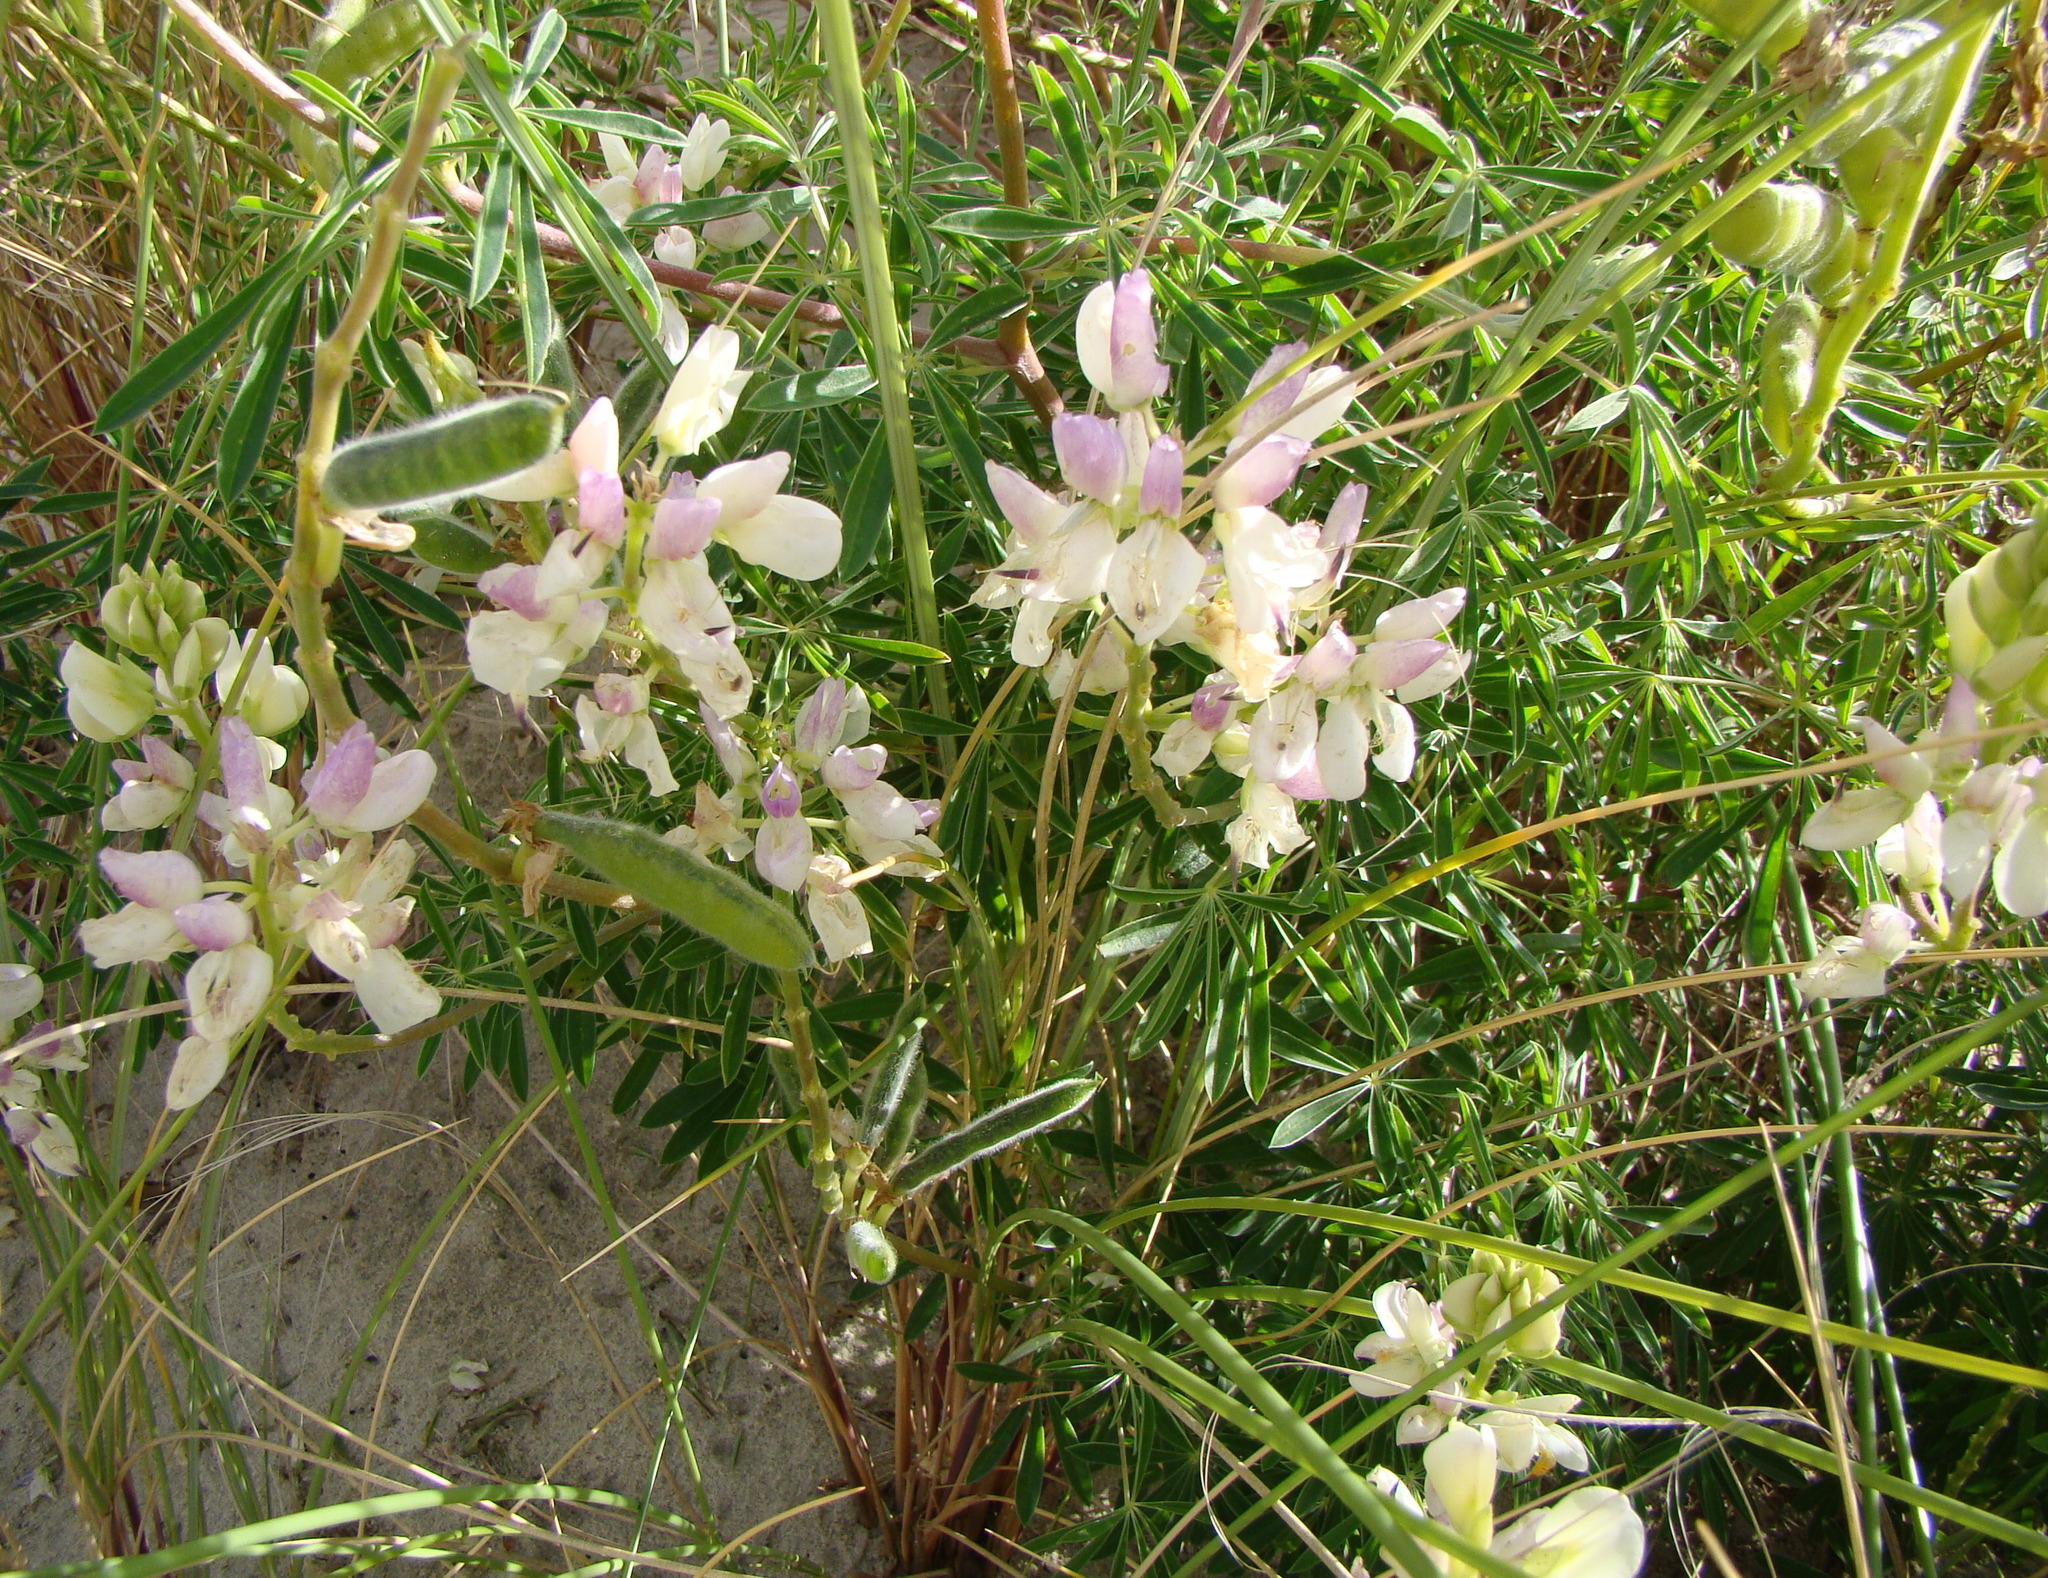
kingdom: Plantae
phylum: Tracheophyta
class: Magnoliopsida
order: Fabales
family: Fabaceae
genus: Lupinus
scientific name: Lupinus arboreus
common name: Yellow bush lupine
